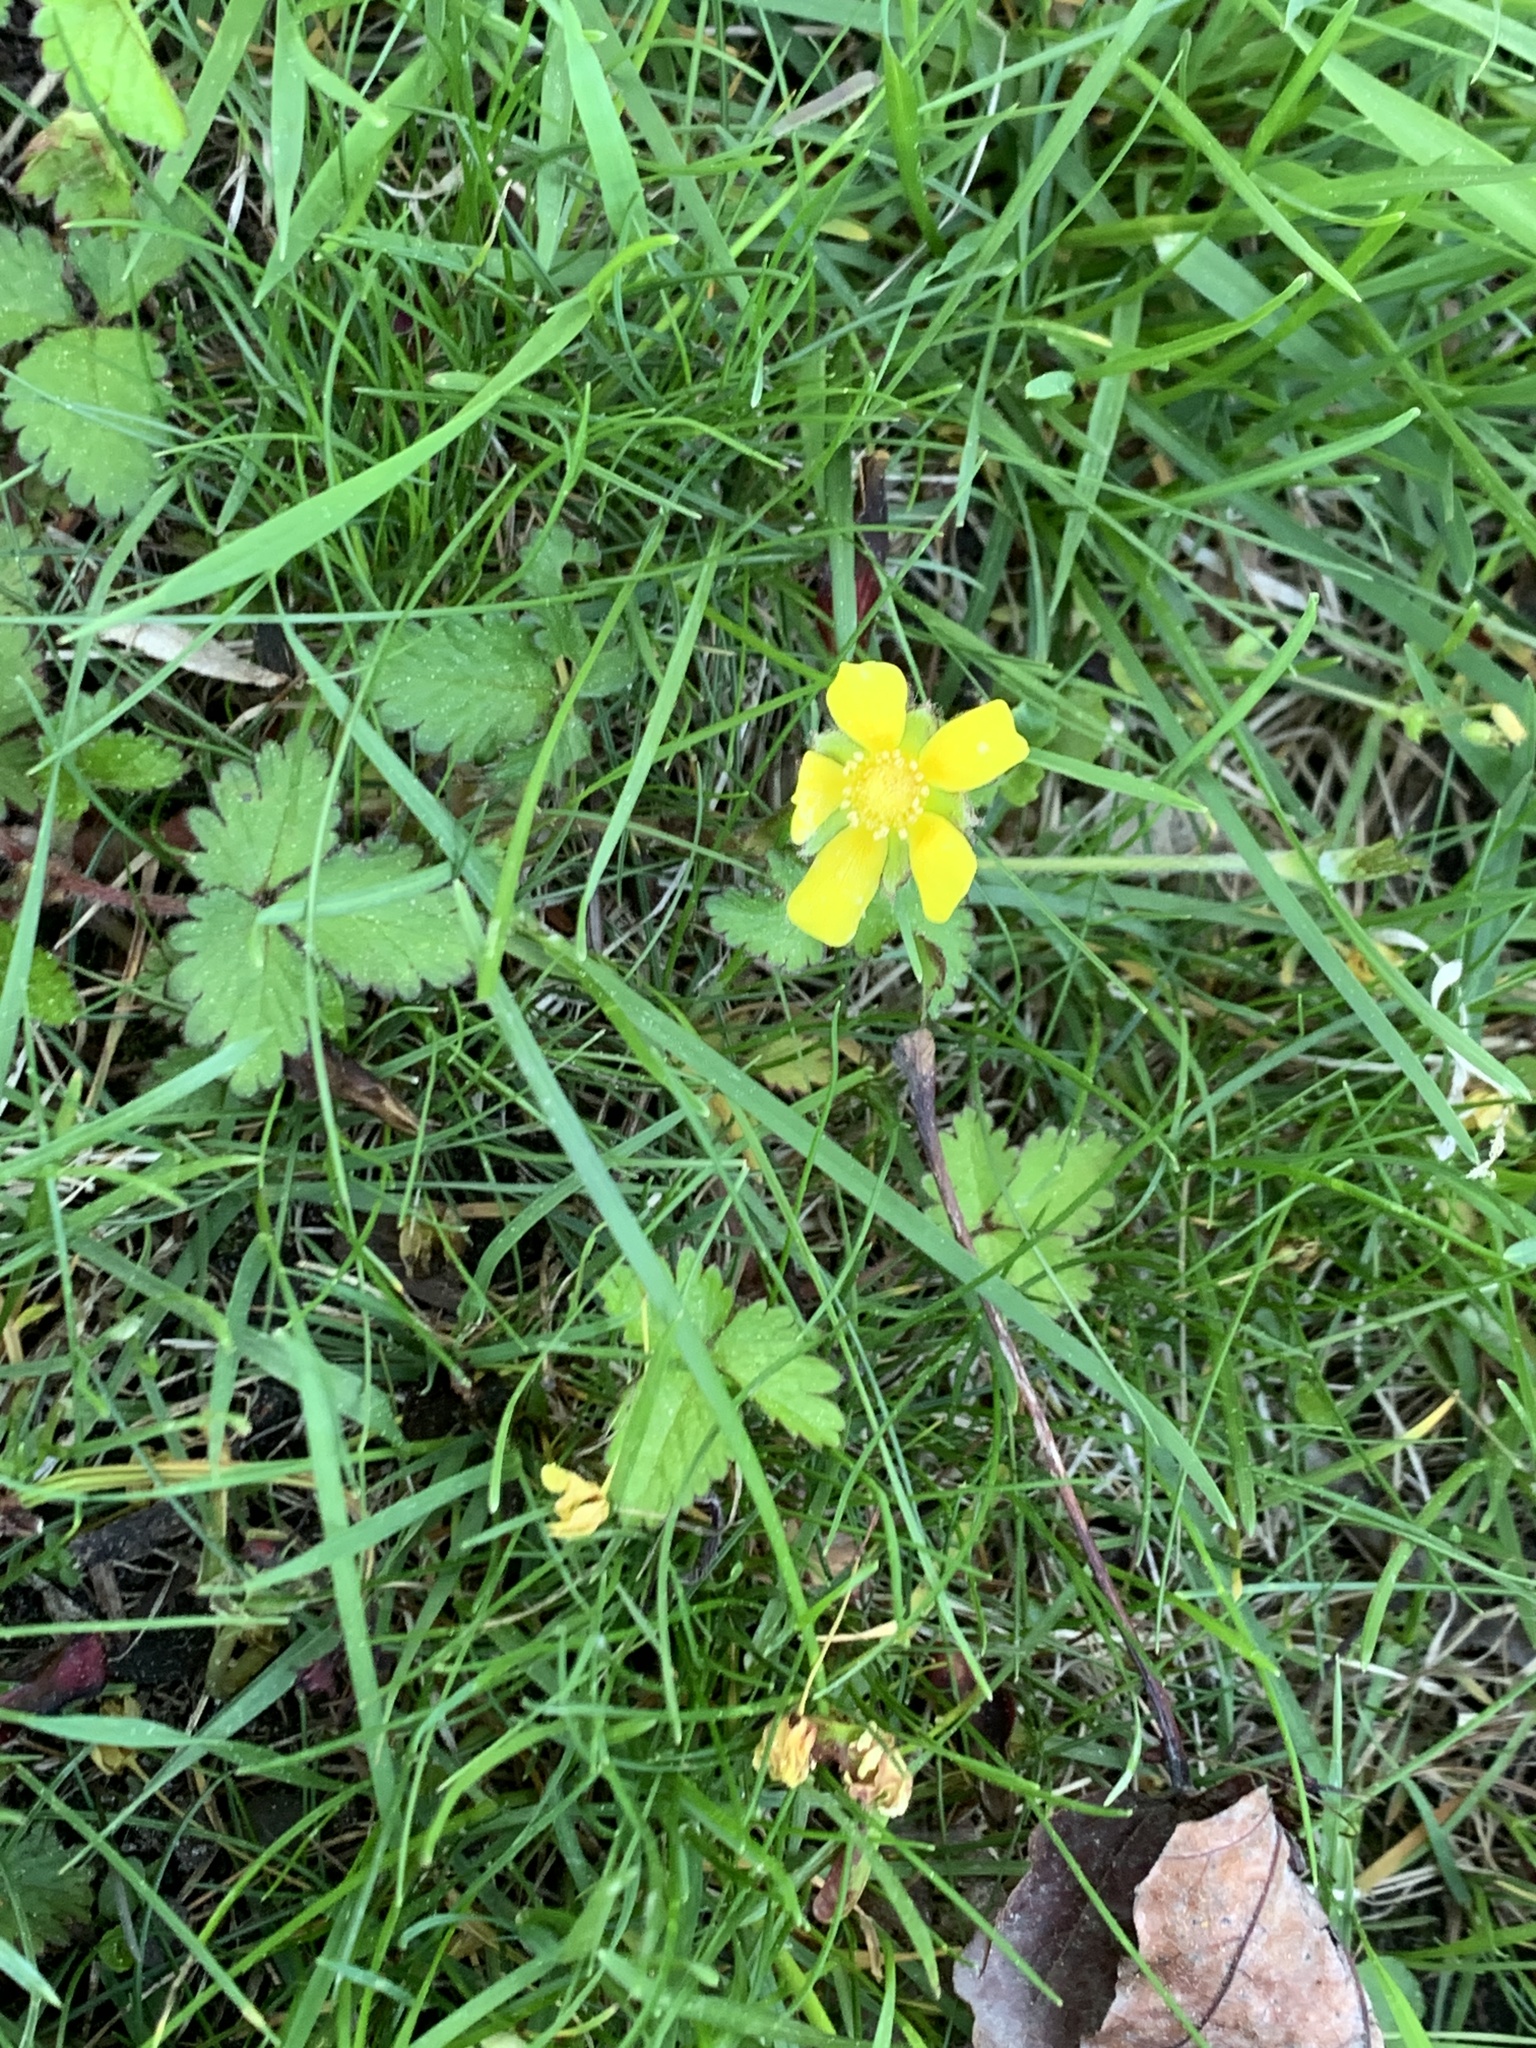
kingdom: Plantae
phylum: Tracheophyta
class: Magnoliopsida
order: Rosales
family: Rosaceae
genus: Potentilla
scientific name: Potentilla indica
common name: Yellow-flowered strawberry
